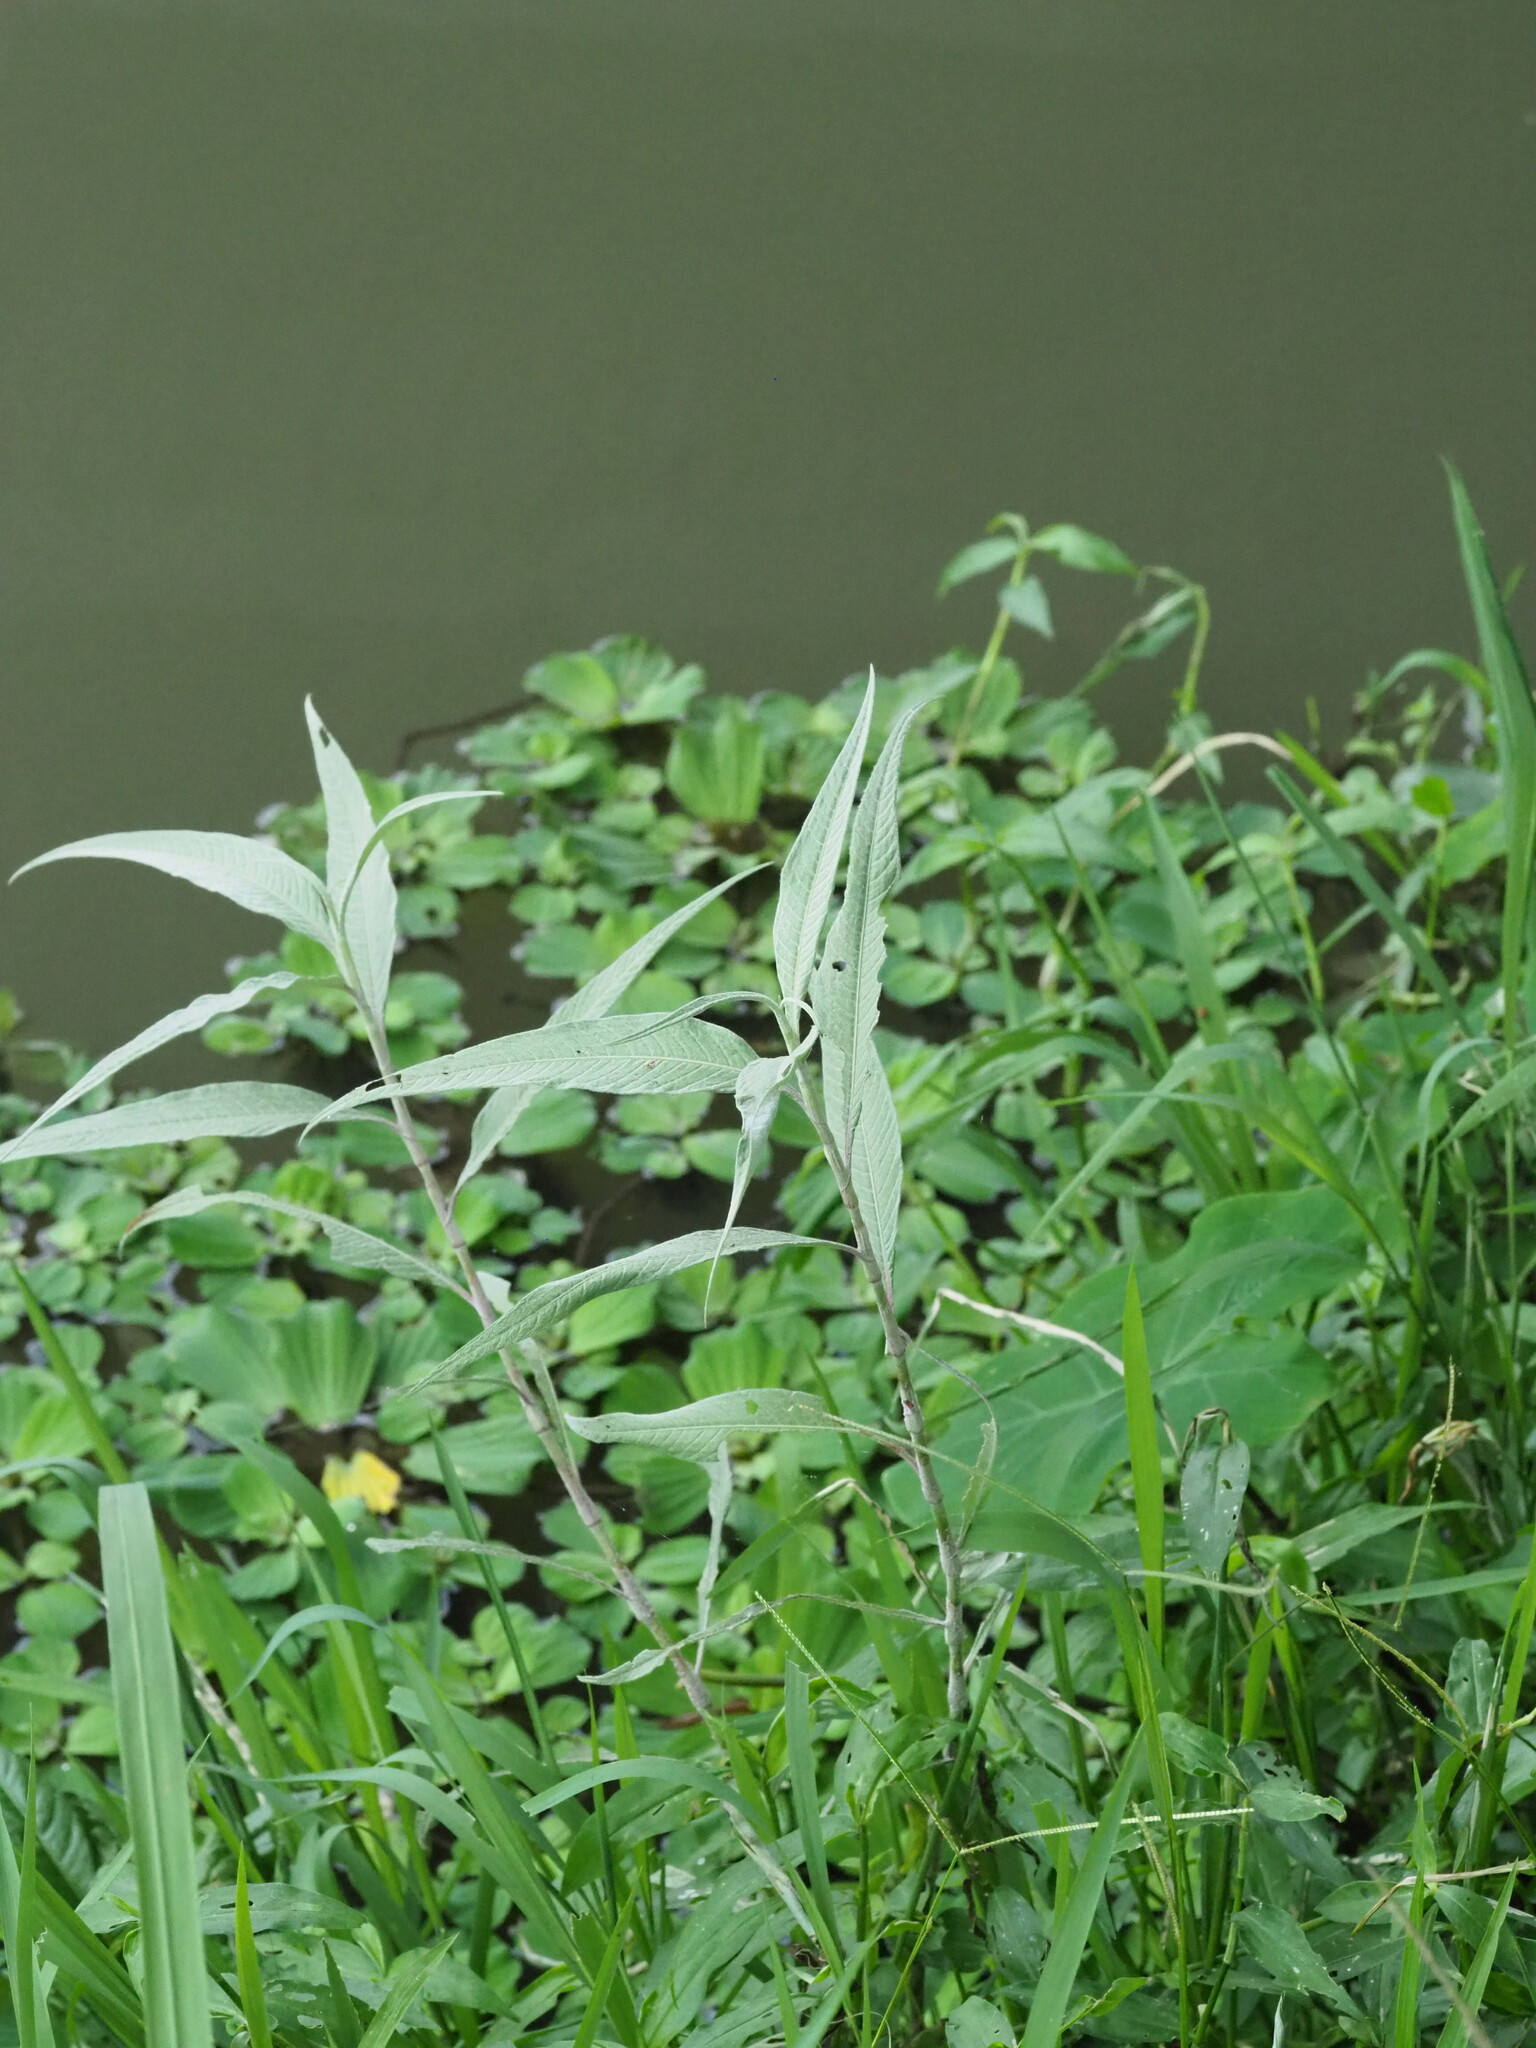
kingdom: Plantae
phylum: Tracheophyta
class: Magnoliopsida
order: Caryophyllales
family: Polygonaceae
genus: Persicaria
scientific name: Persicaria lanata
